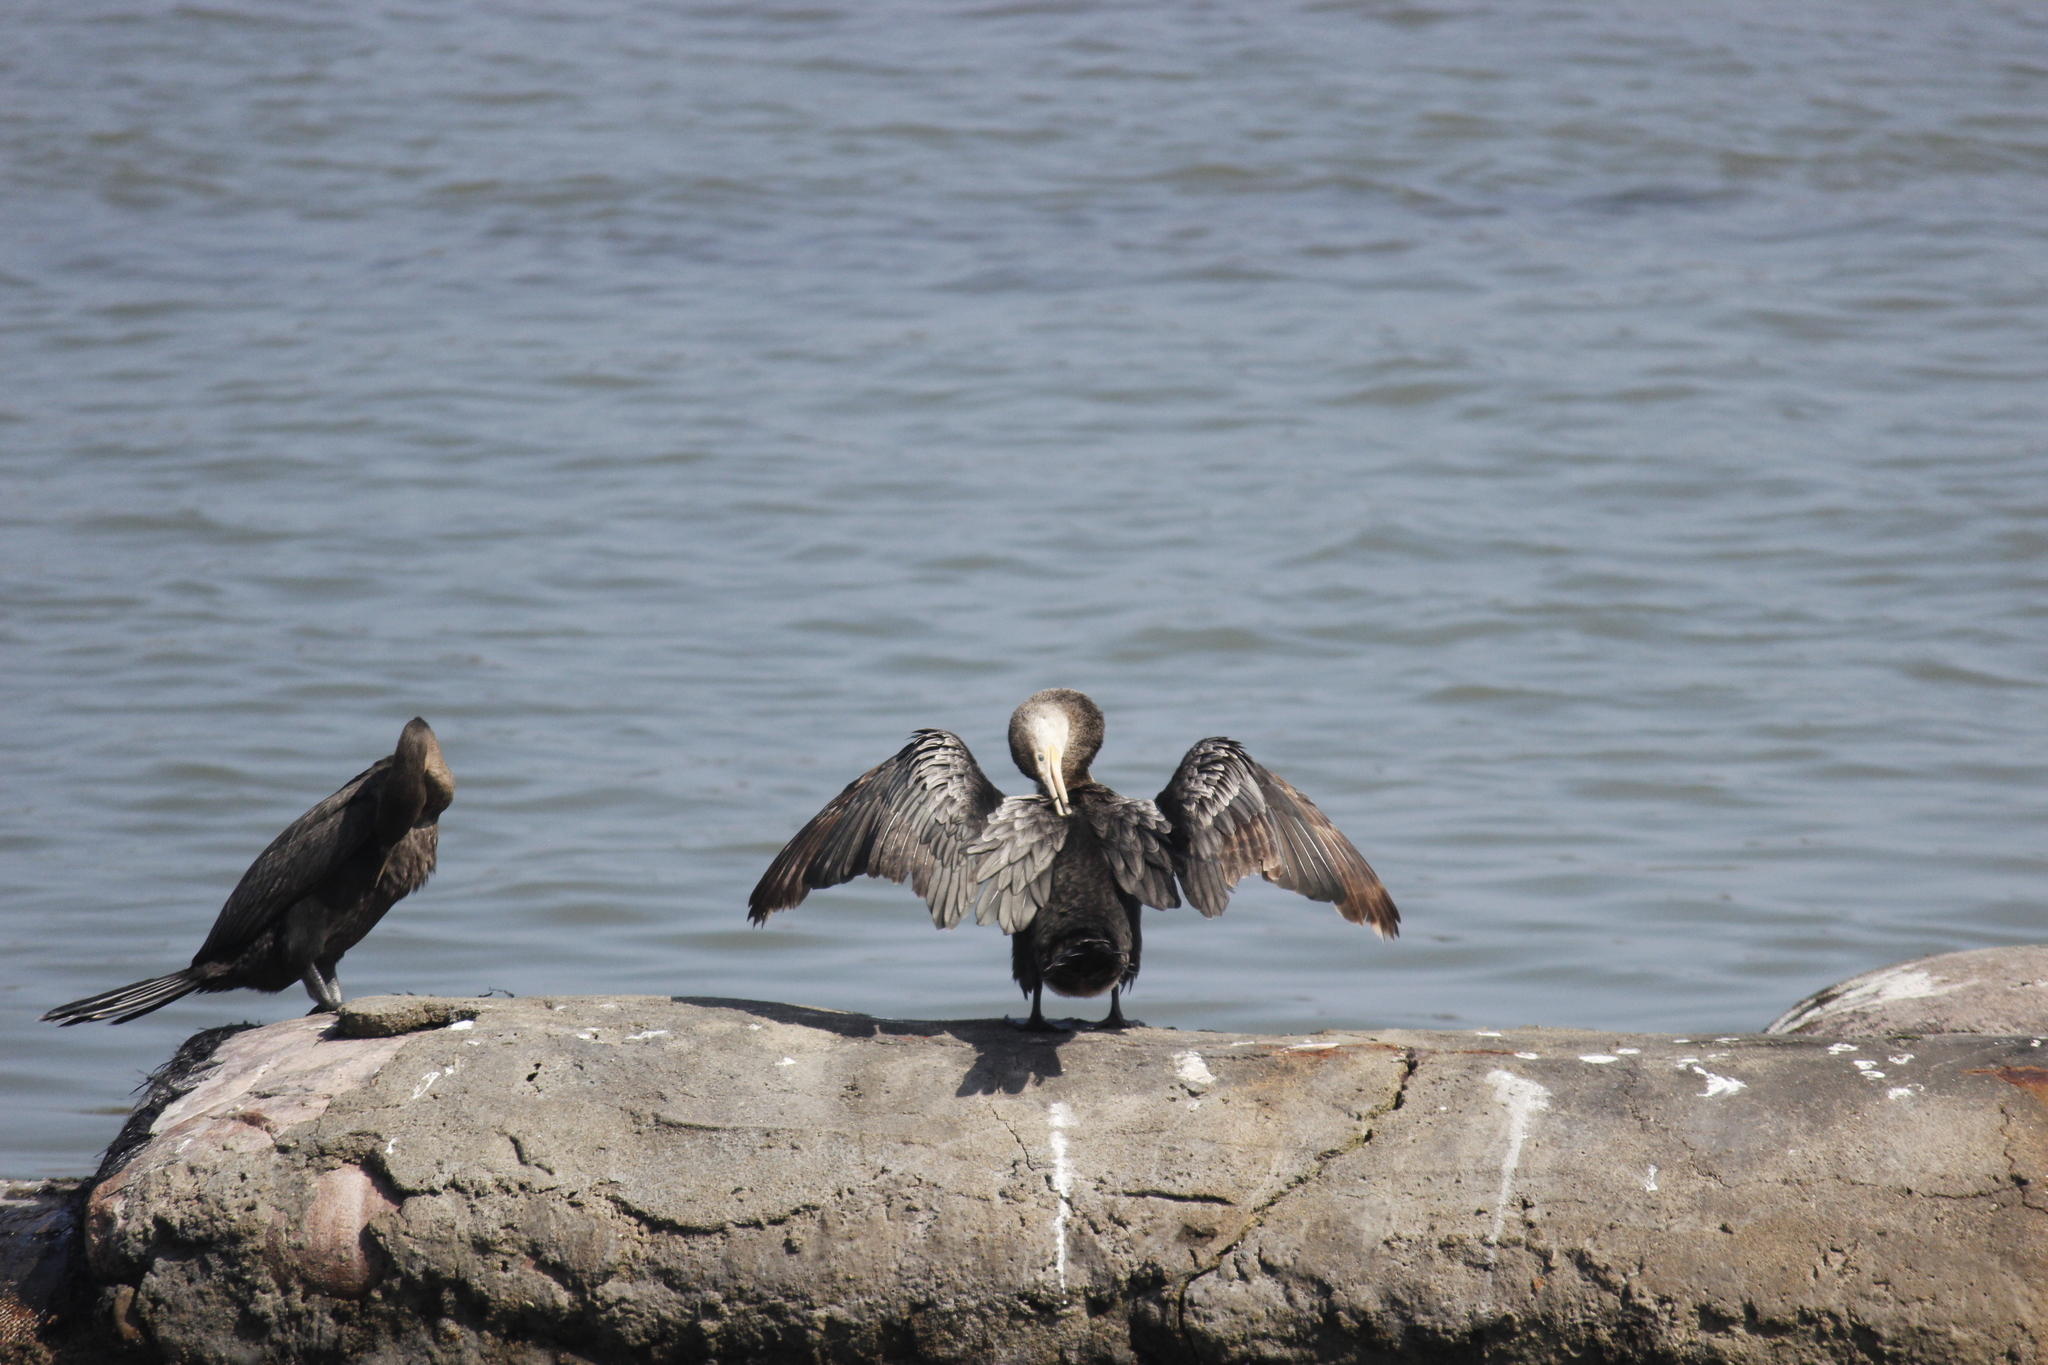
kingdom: Animalia
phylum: Chordata
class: Aves
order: Suliformes
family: Phalacrocoracidae
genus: Phalacrocorax
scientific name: Phalacrocorax brasilianus
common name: Neotropic cormorant
